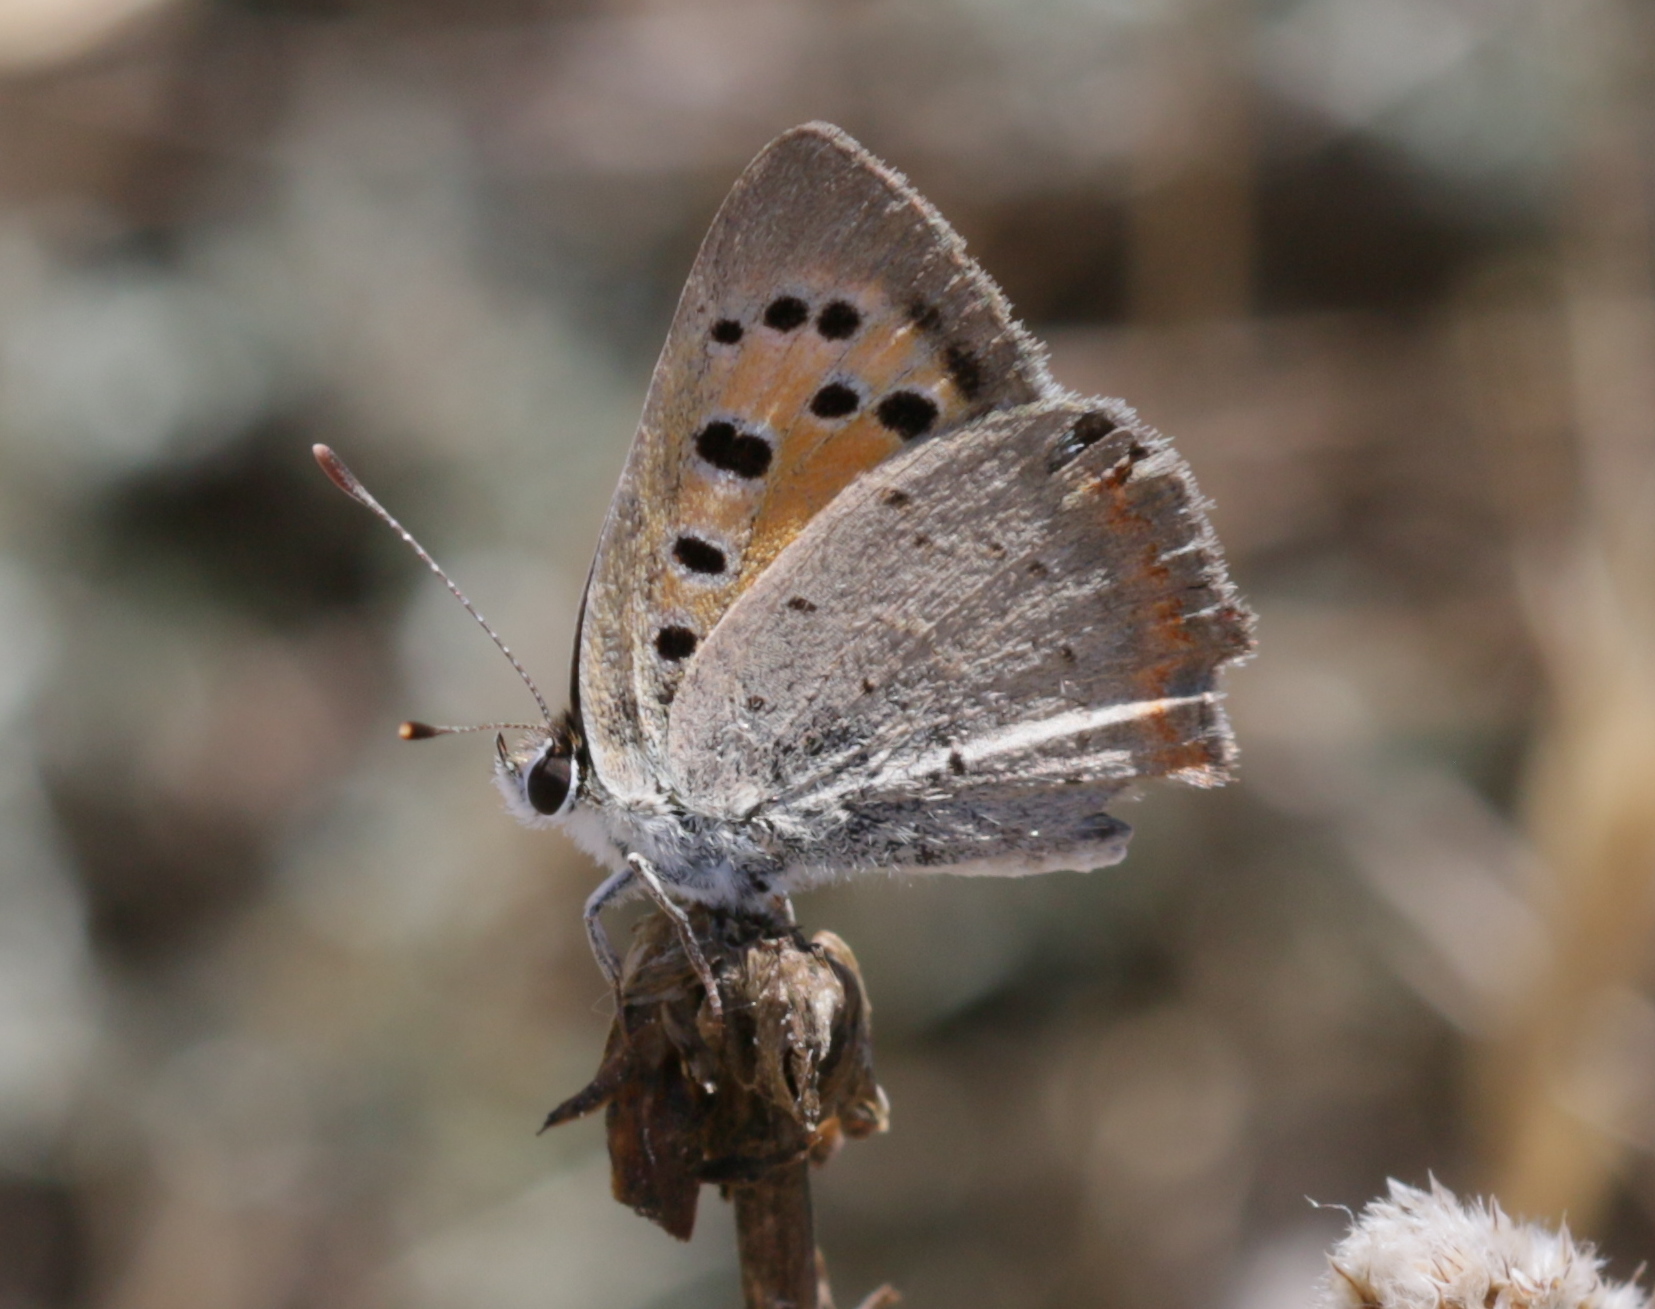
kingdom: Animalia
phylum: Arthropoda
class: Insecta
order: Lepidoptera
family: Lycaenidae
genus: Lycaena
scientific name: Lycaena phlaeas
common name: Small copper
